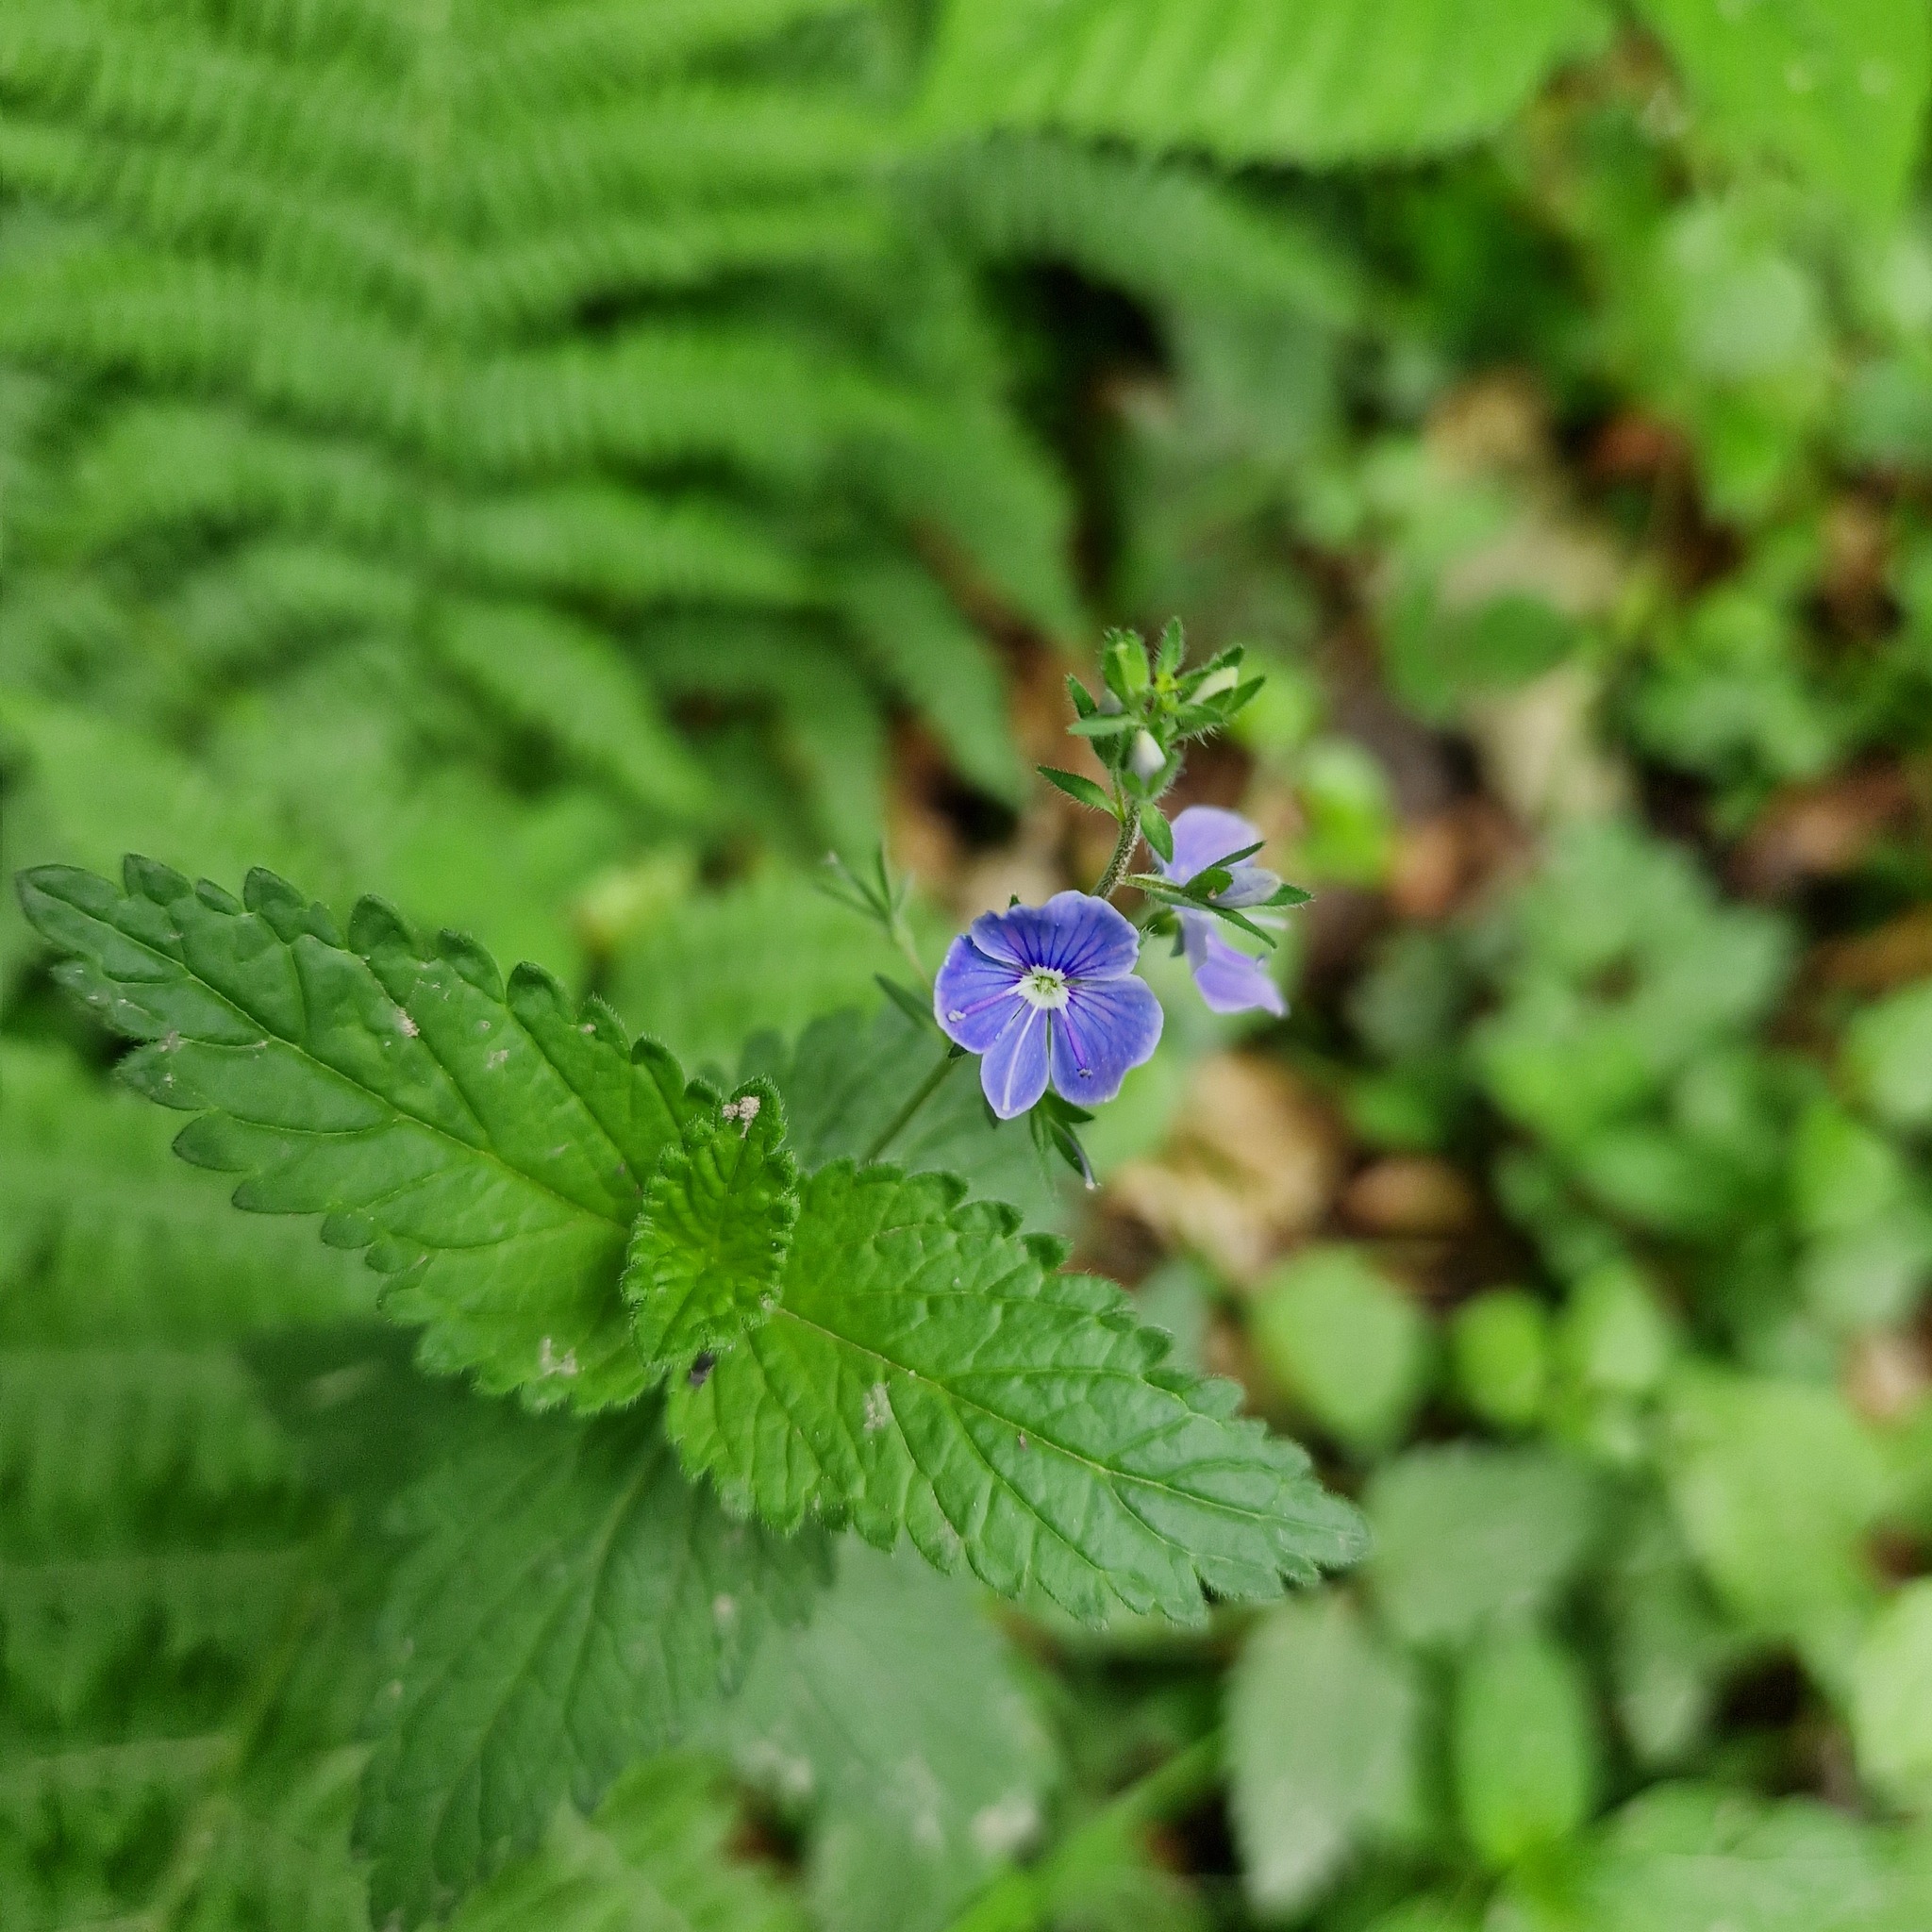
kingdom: Plantae
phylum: Tracheophyta
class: Magnoliopsida
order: Lamiales
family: Plantaginaceae
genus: Veronica
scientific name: Veronica chamaedrys
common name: Germander speedwell
